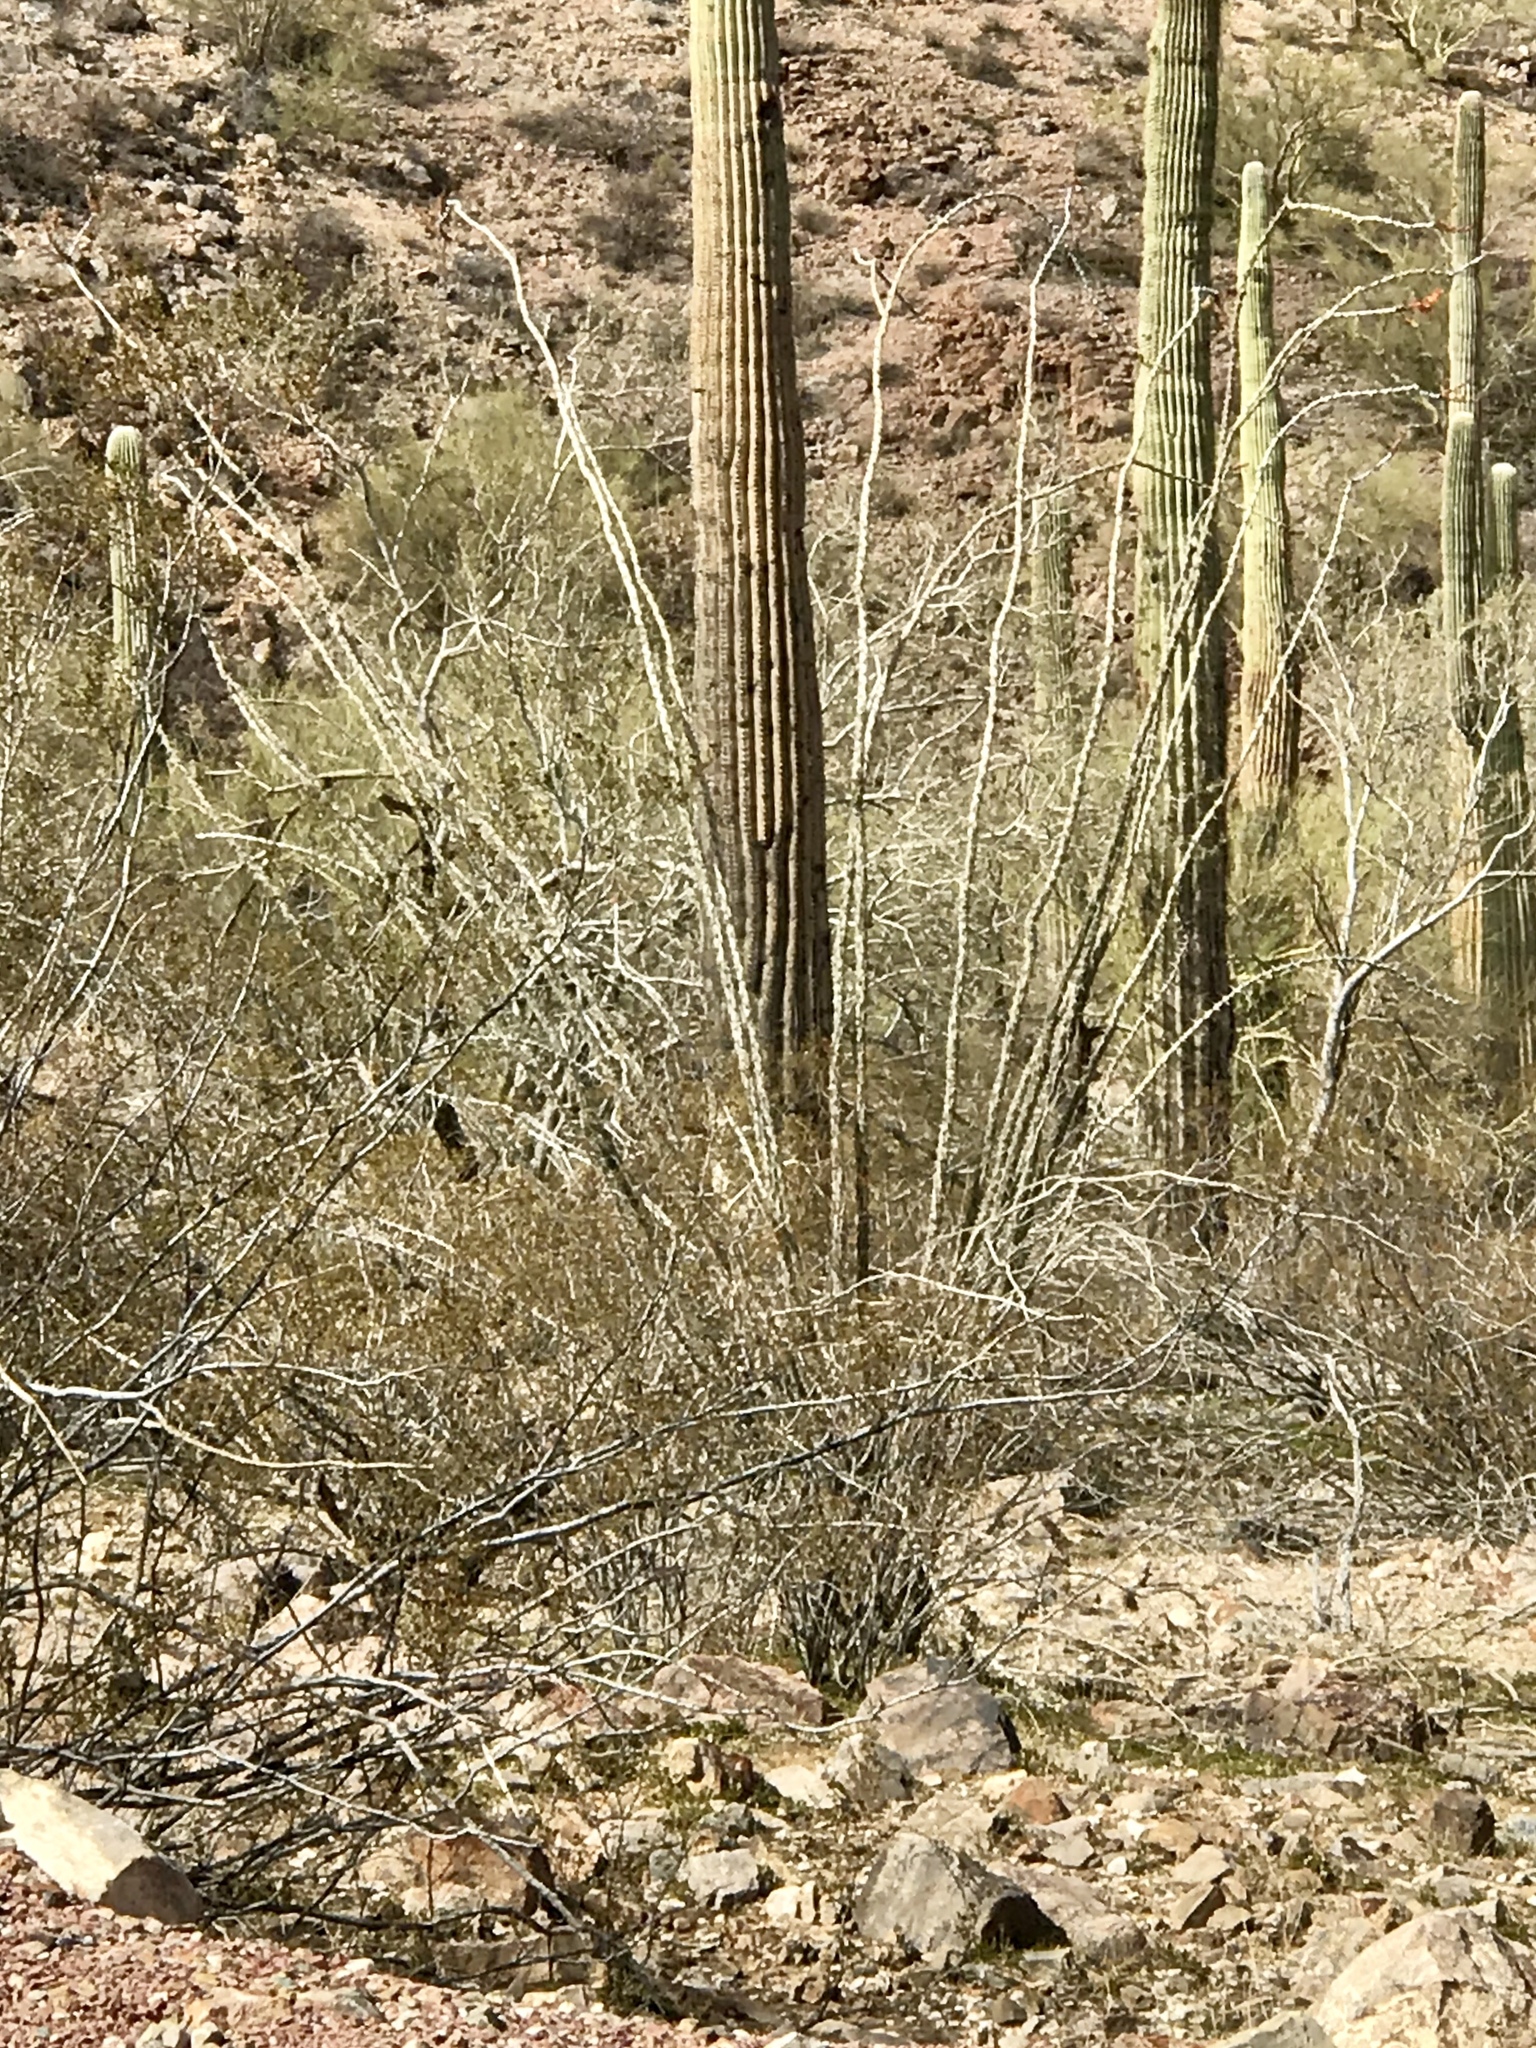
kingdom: Plantae
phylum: Tracheophyta
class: Magnoliopsida
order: Ericales
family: Fouquieriaceae
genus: Fouquieria
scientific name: Fouquieria splendens
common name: Vine-cactus
